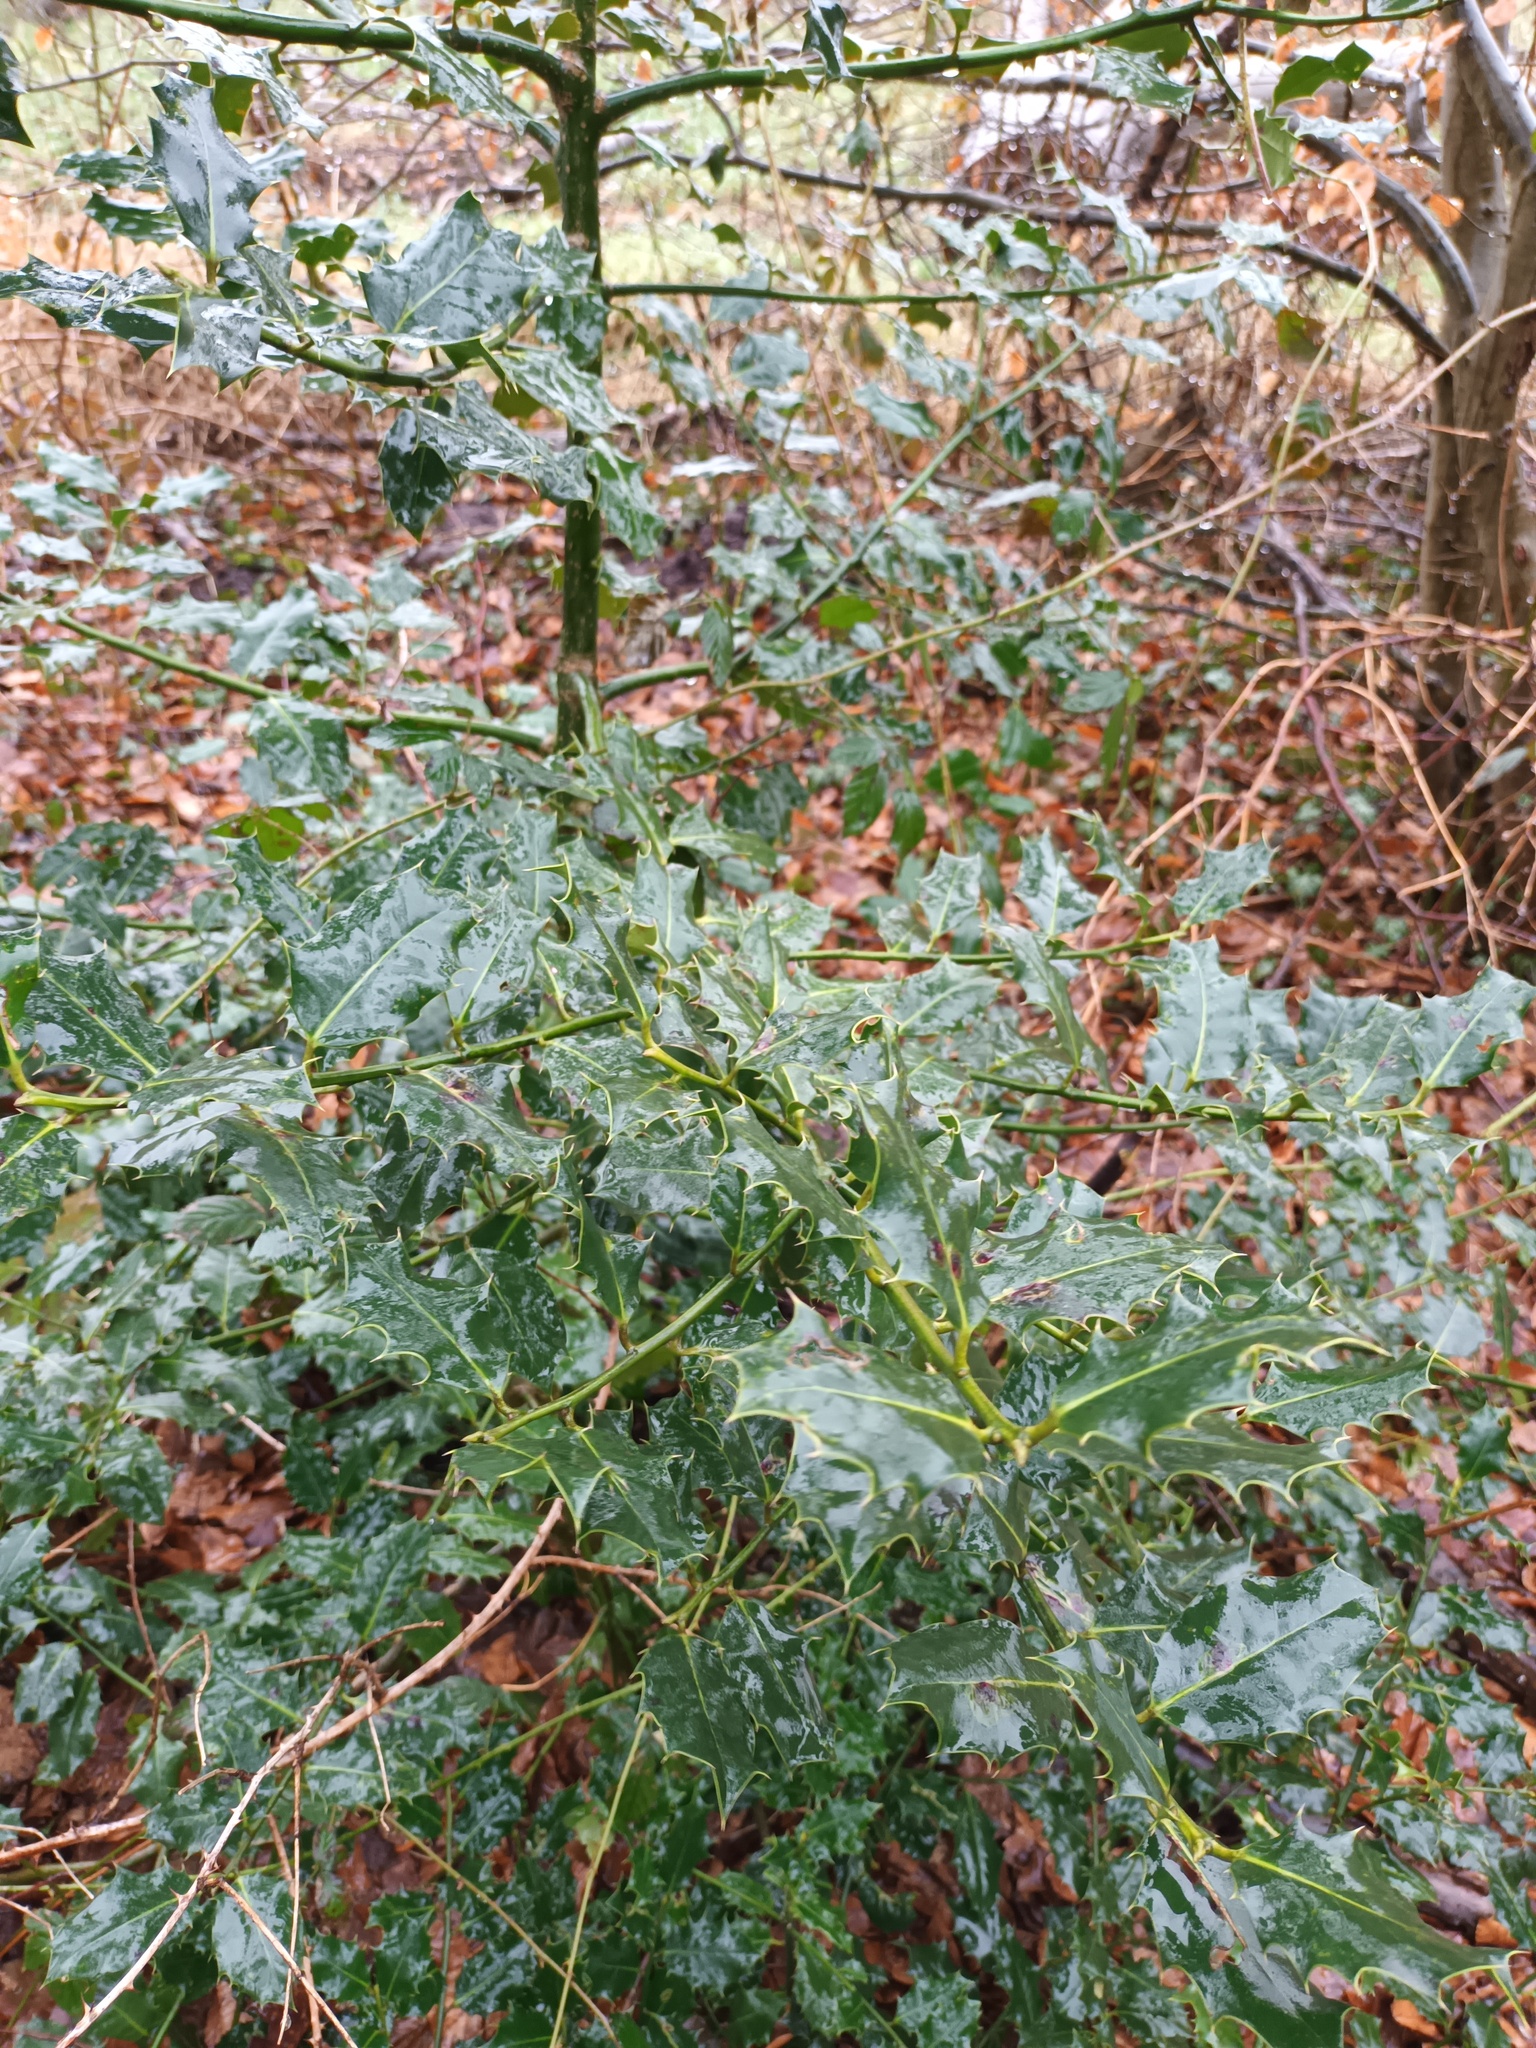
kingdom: Plantae
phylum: Tracheophyta
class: Magnoliopsida
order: Aquifoliales
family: Aquifoliaceae
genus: Ilex
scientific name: Ilex aquifolium
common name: English holly
